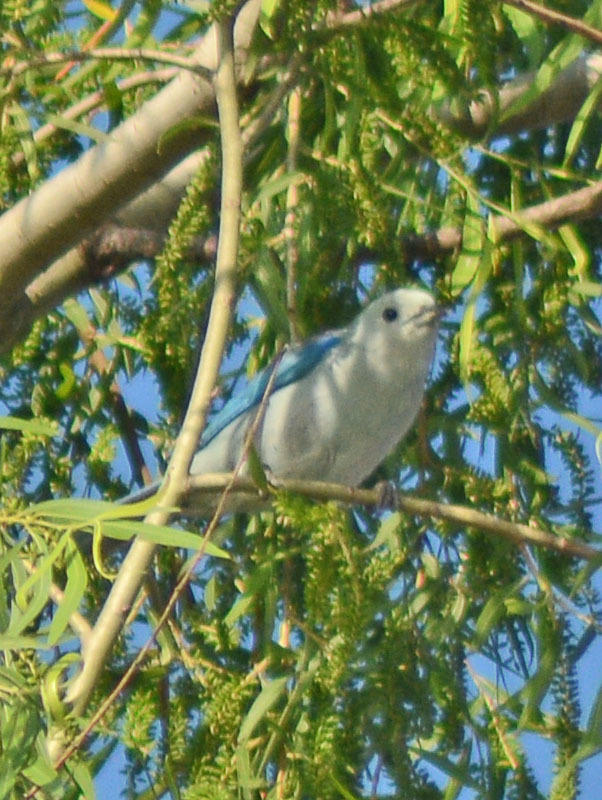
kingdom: Animalia
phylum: Chordata
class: Aves
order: Passeriformes
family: Thraupidae
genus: Thraupis
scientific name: Thraupis episcopus
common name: Blue-grey tanager
